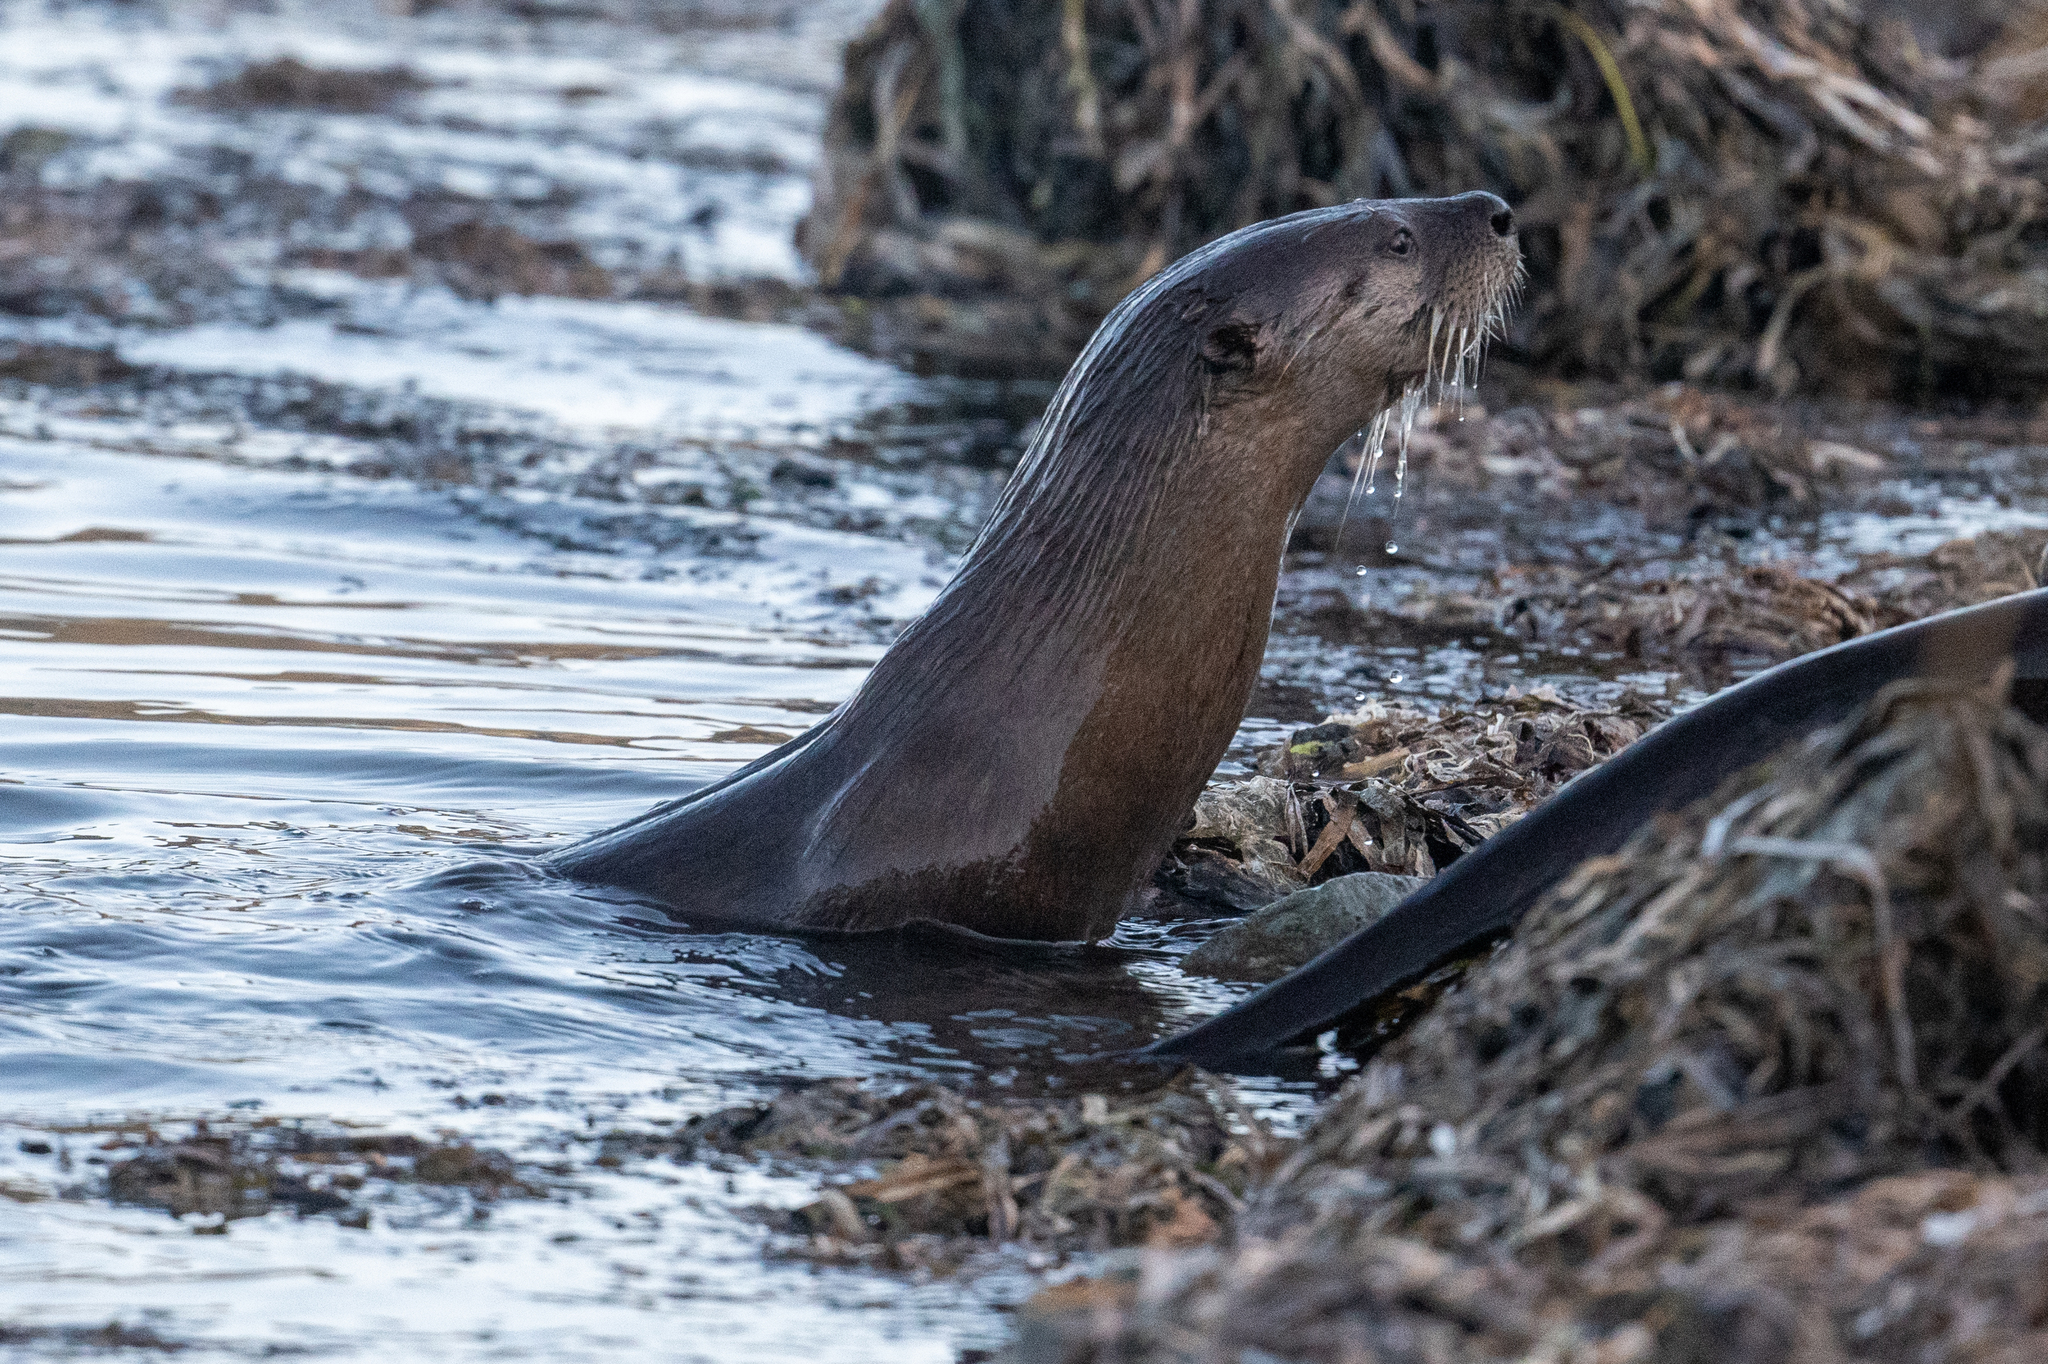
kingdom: Animalia
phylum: Chordata
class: Mammalia
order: Carnivora
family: Mustelidae
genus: Lontra
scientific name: Lontra canadensis
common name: North american river otter
